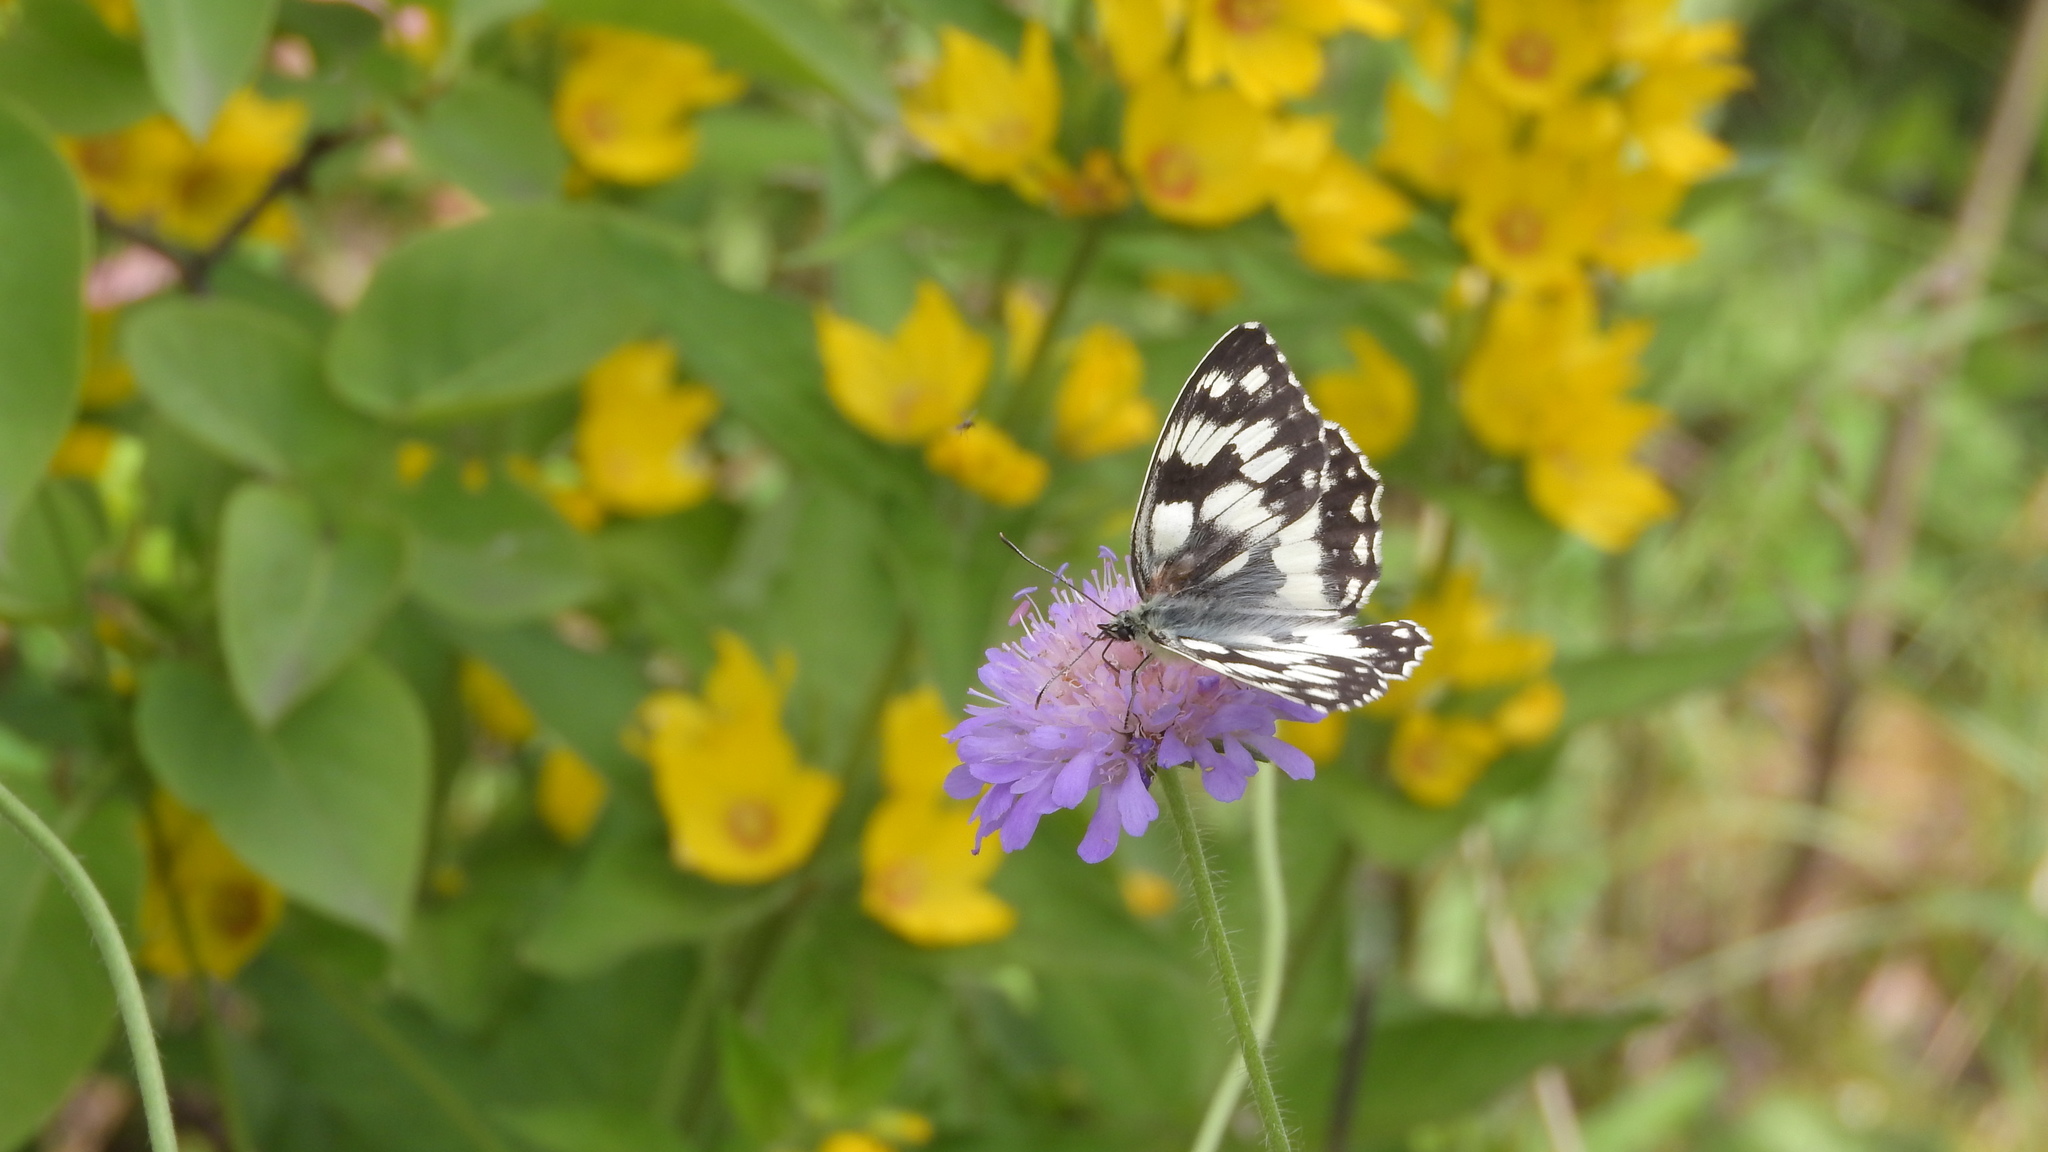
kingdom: Animalia
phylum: Arthropoda
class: Insecta
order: Lepidoptera
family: Nymphalidae
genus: Melanargia
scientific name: Melanargia galathea
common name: Marbled white
